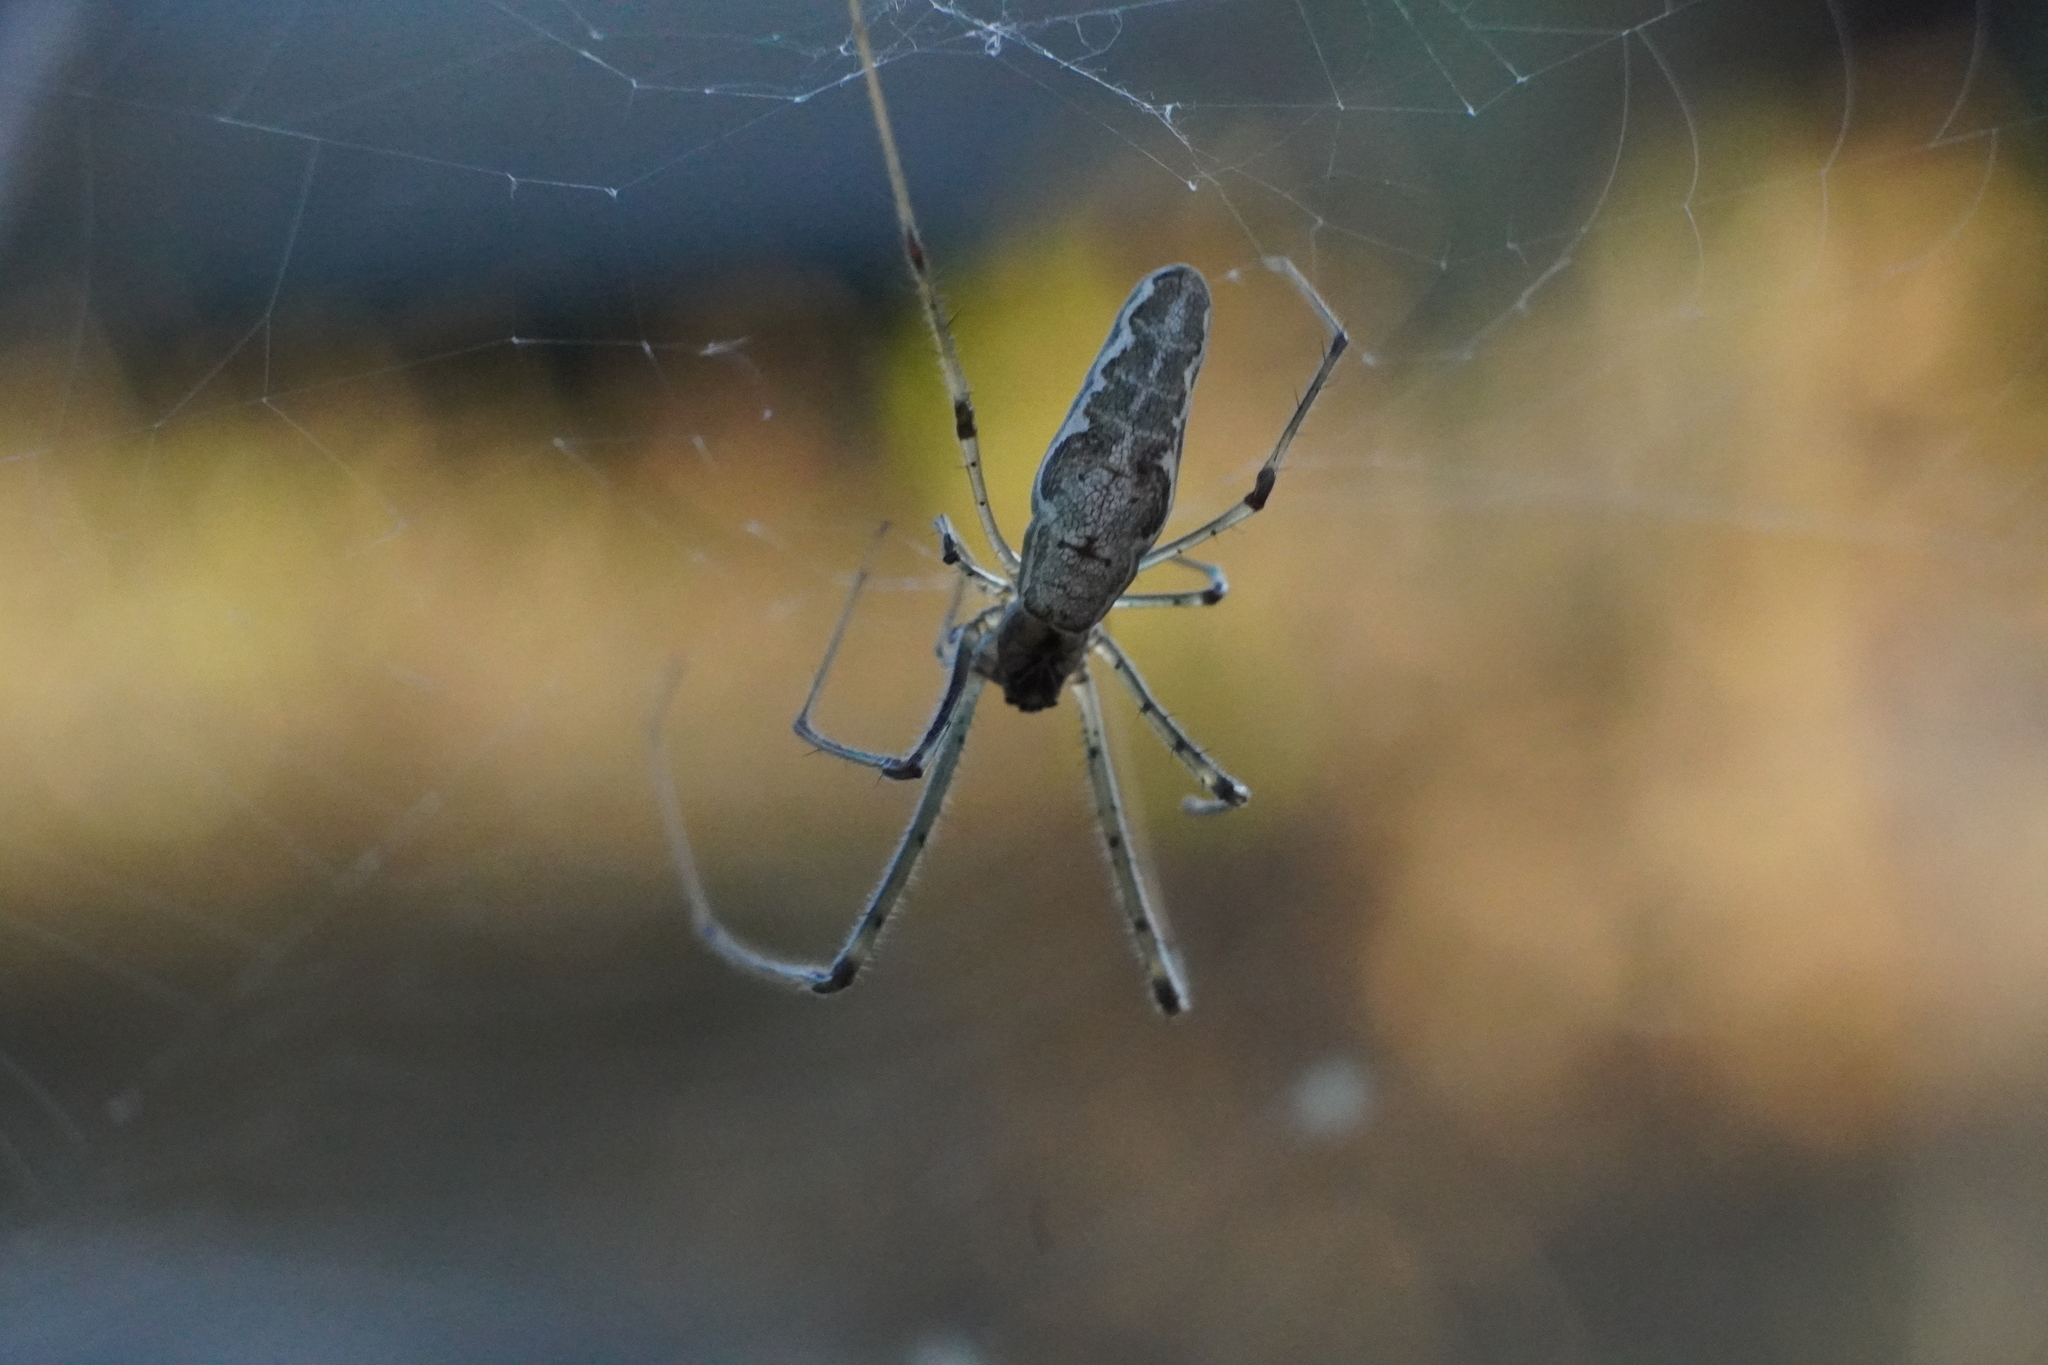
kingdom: Animalia
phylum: Arthropoda
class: Arachnida
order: Araneae
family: Tetragnathidae
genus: Tetragnatha
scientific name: Tetragnatha elongata
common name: Longjawed orb weavers
